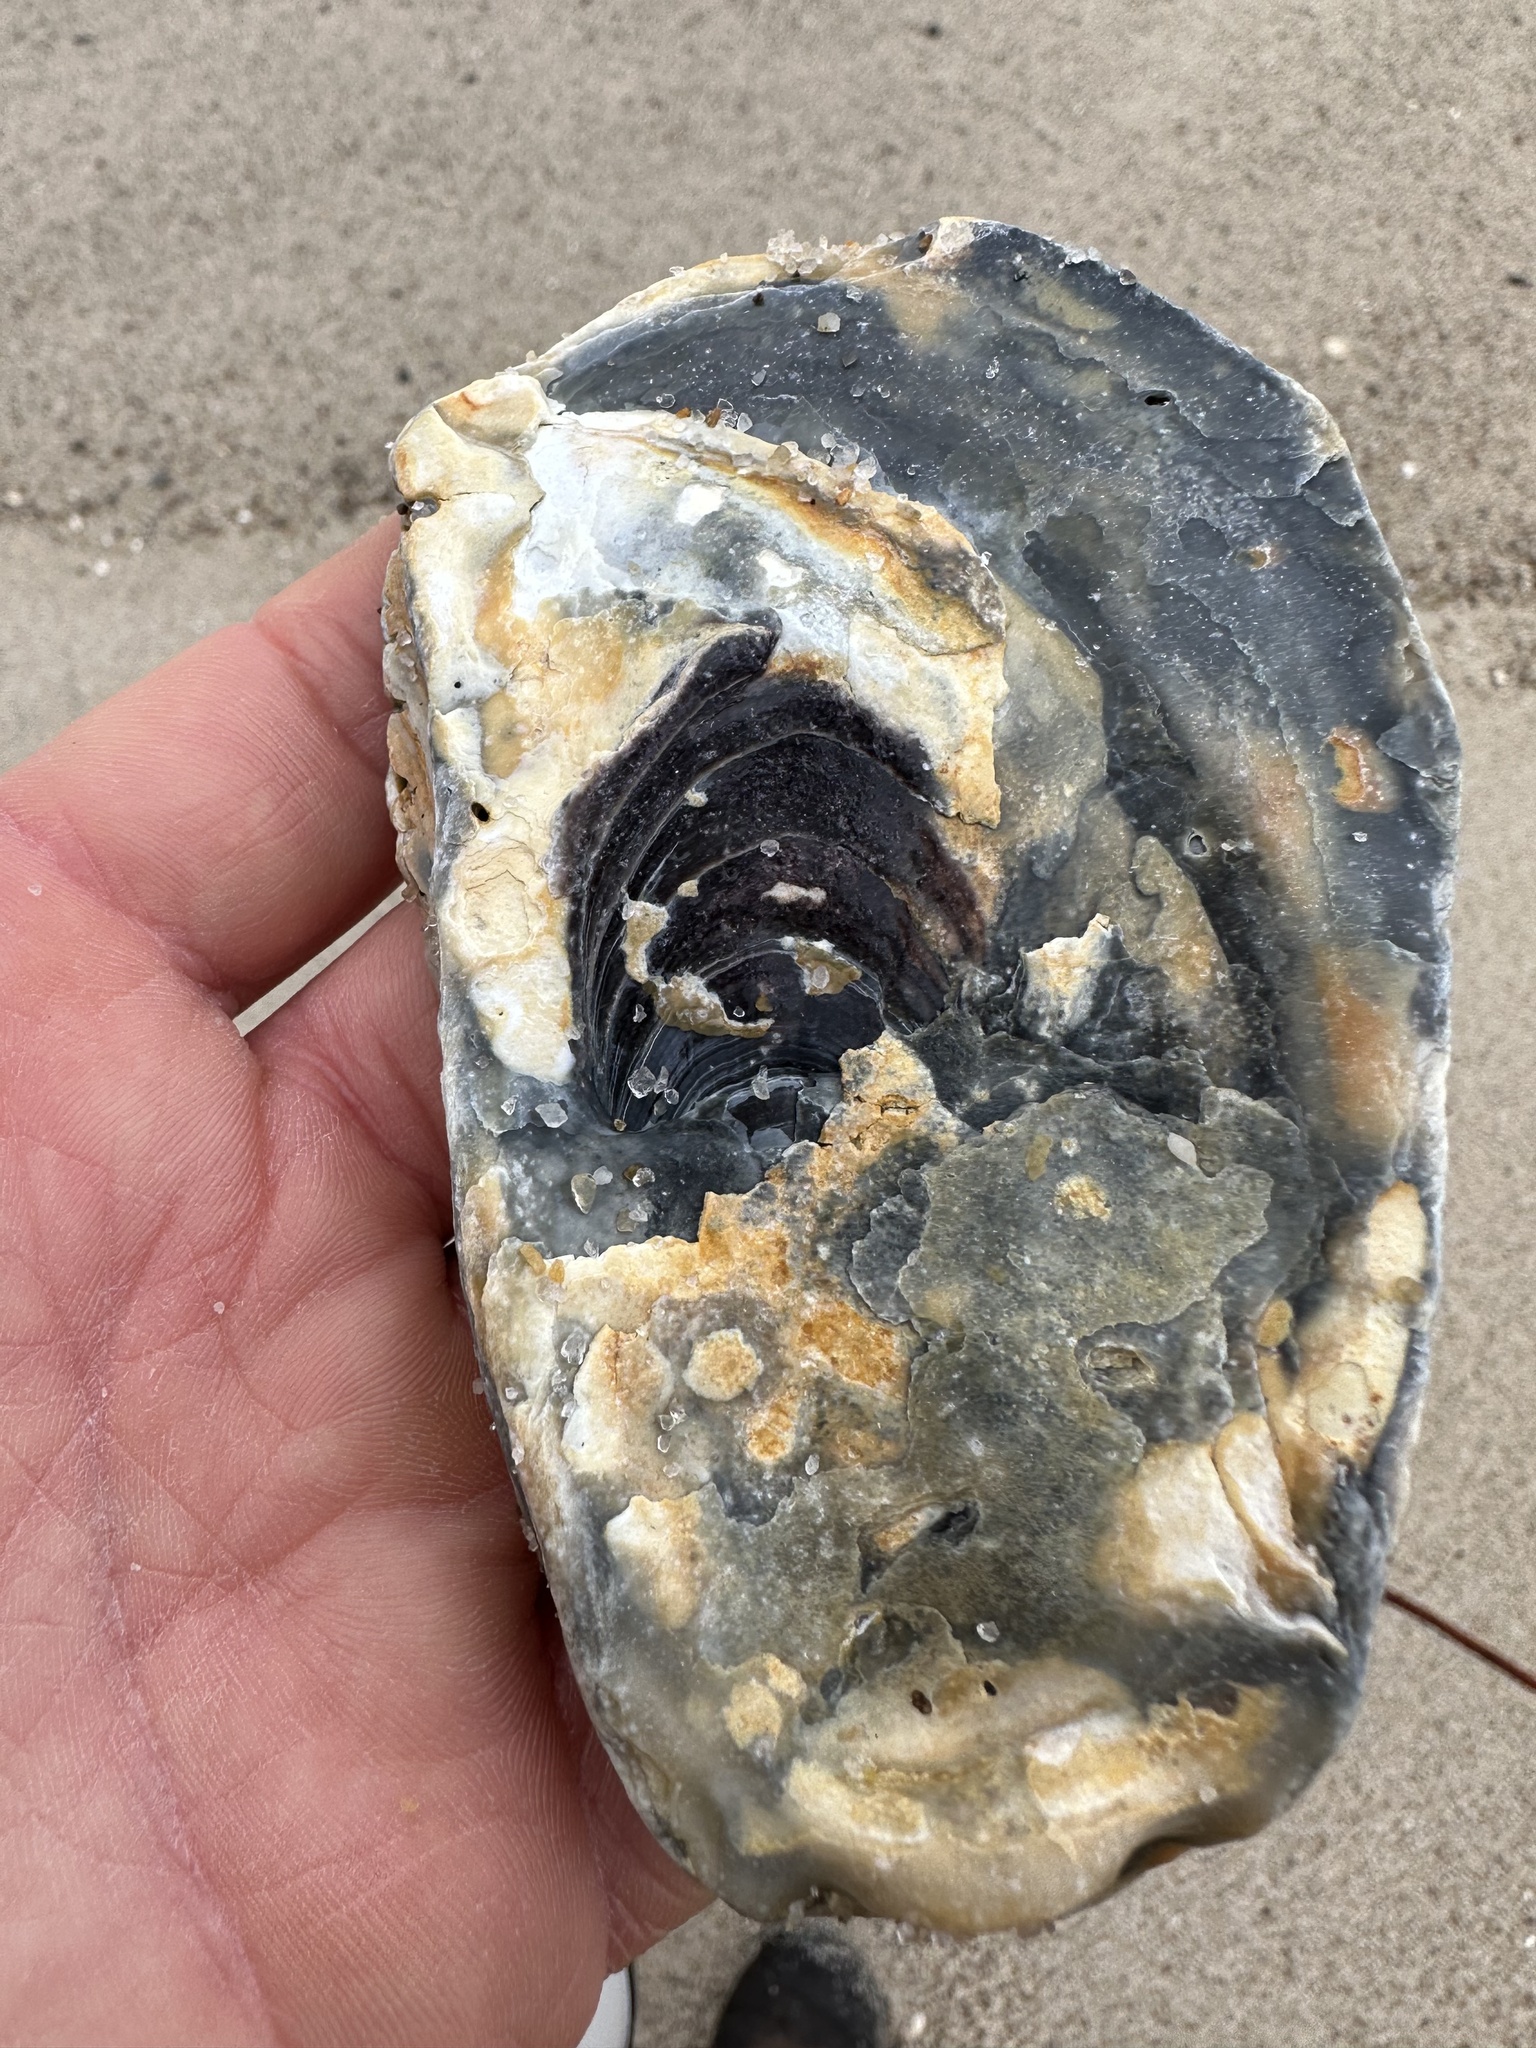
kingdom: Animalia
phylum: Mollusca
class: Bivalvia
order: Ostreida
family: Ostreidae
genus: Crassostrea
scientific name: Crassostrea virginica
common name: American oyster
